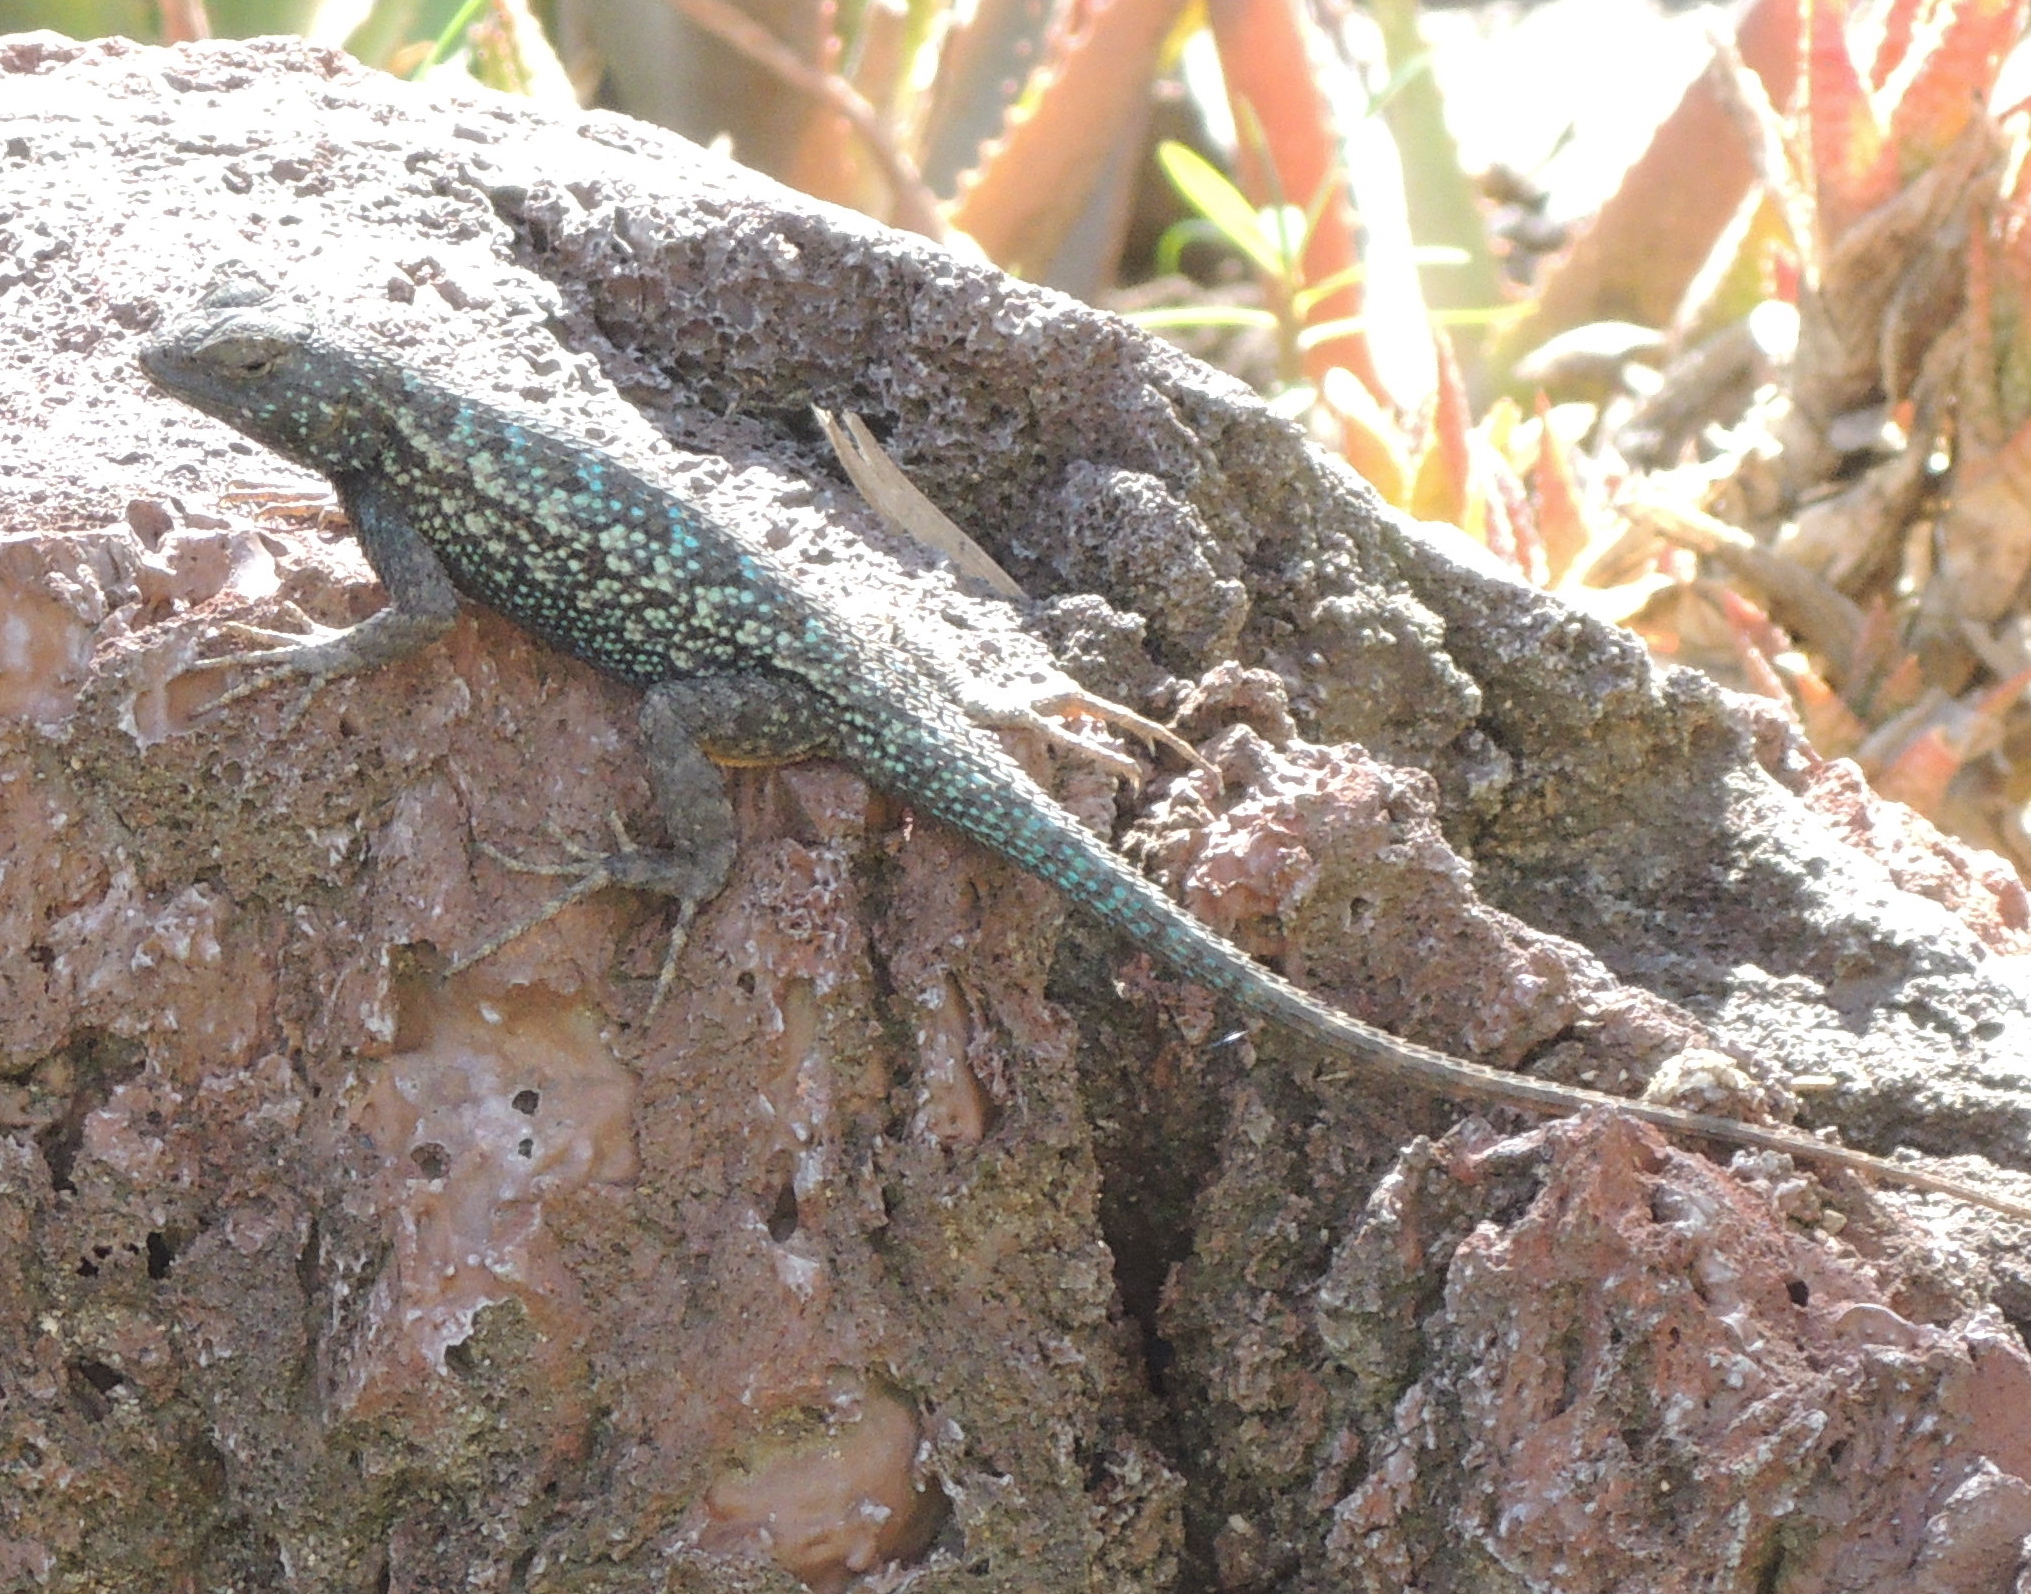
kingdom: Animalia
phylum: Chordata
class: Squamata
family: Phrynosomatidae
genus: Sceloporus
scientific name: Sceloporus occidentalis
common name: Western fence lizard
